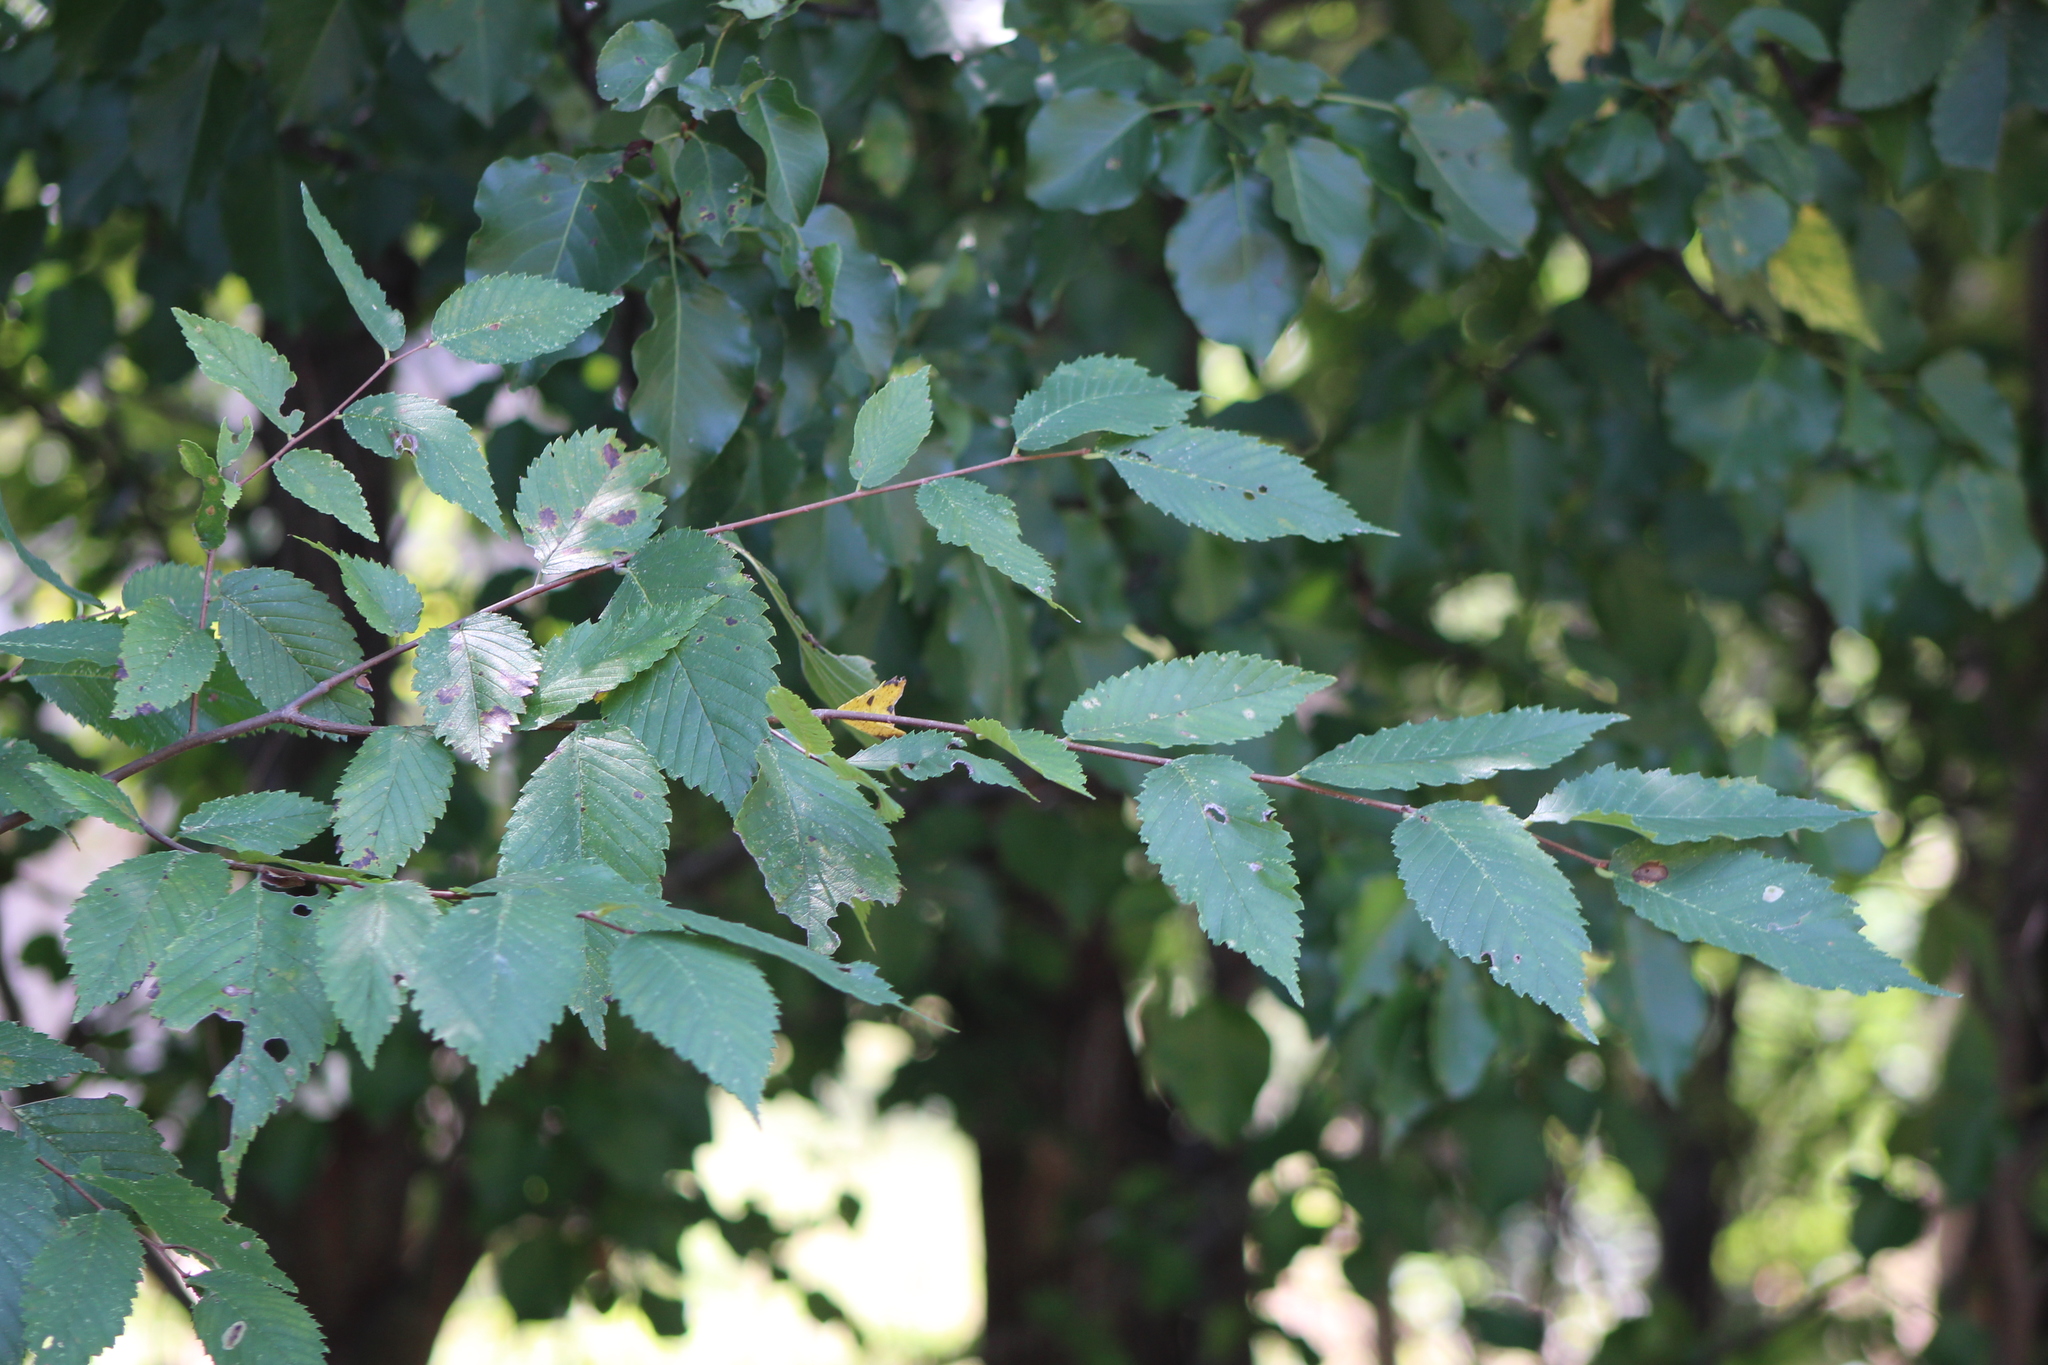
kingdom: Plantae
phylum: Tracheophyta
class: Magnoliopsida
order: Rosales
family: Ulmaceae
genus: Ulmus
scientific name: Ulmus americana
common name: American elm
